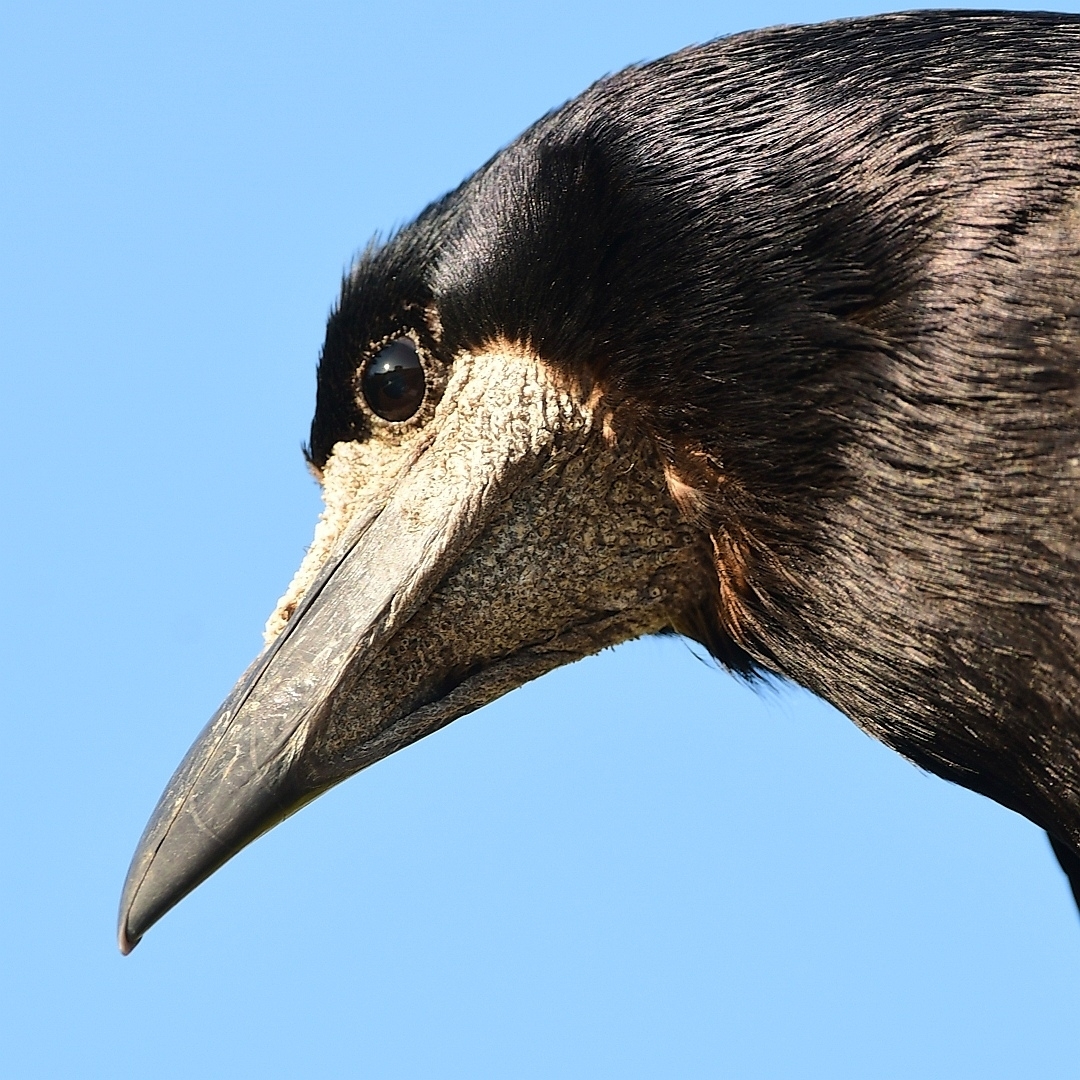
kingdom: Animalia
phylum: Chordata
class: Aves
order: Passeriformes
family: Corvidae
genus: Corvus
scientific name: Corvus frugilegus
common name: Rook
